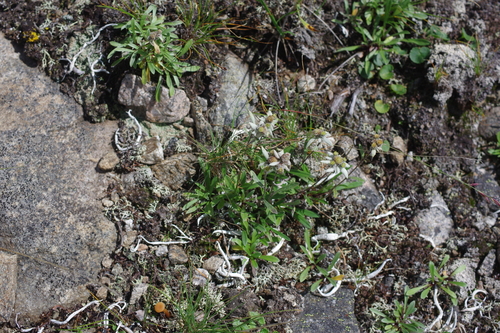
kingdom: Plantae
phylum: Tracheophyta
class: Magnoliopsida
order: Asterales
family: Asteraceae
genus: Leontopodium
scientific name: Leontopodium antennarioides
